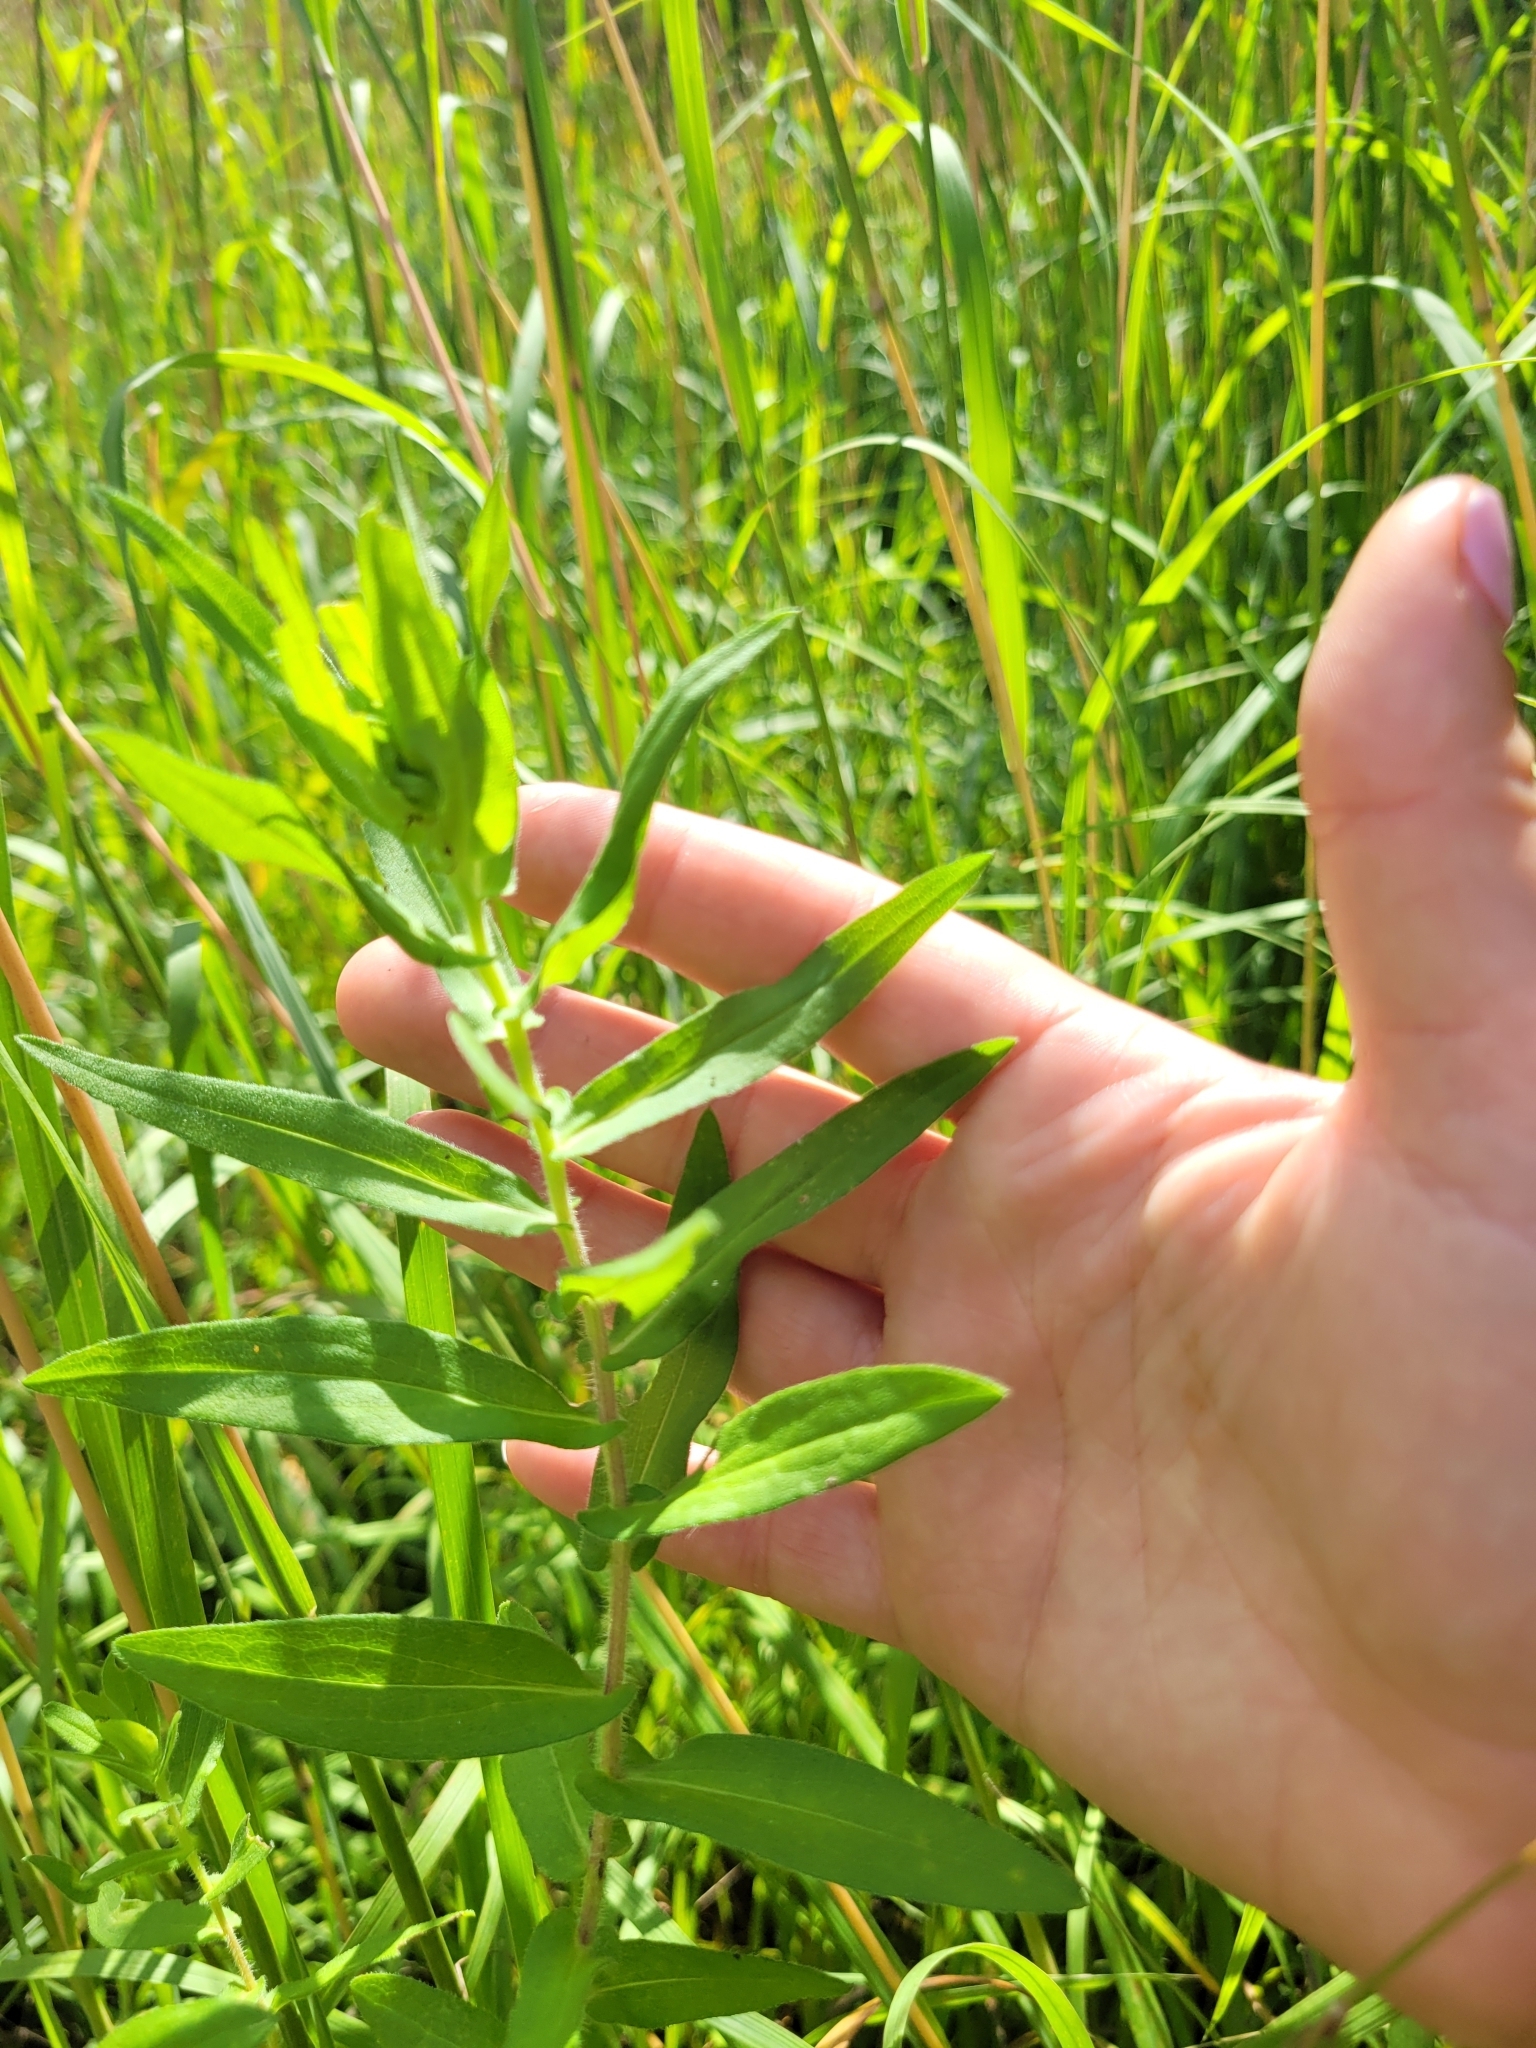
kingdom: Plantae
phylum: Tracheophyta
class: Magnoliopsida
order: Asterales
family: Asteraceae
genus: Symphyotrichum
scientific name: Symphyotrichum novae-angliae
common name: Michaelmas daisy
